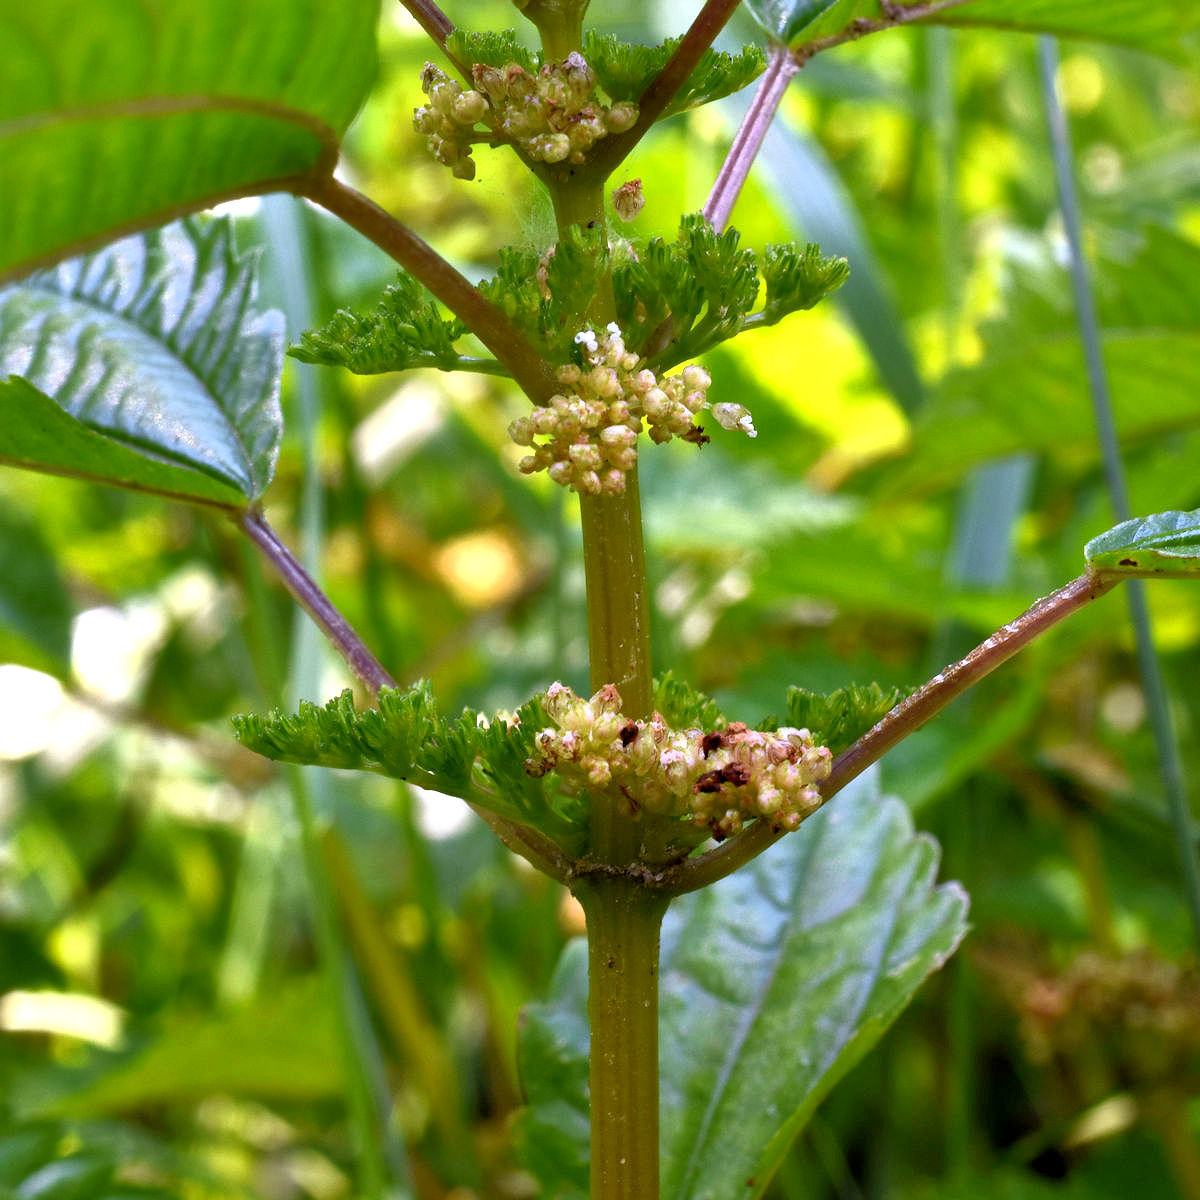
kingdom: Plantae
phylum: Tracheophyta
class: Magnoliopsida
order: Rosales
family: Urticaceae
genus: Pilea
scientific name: Pilea pumila
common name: Clearweed
